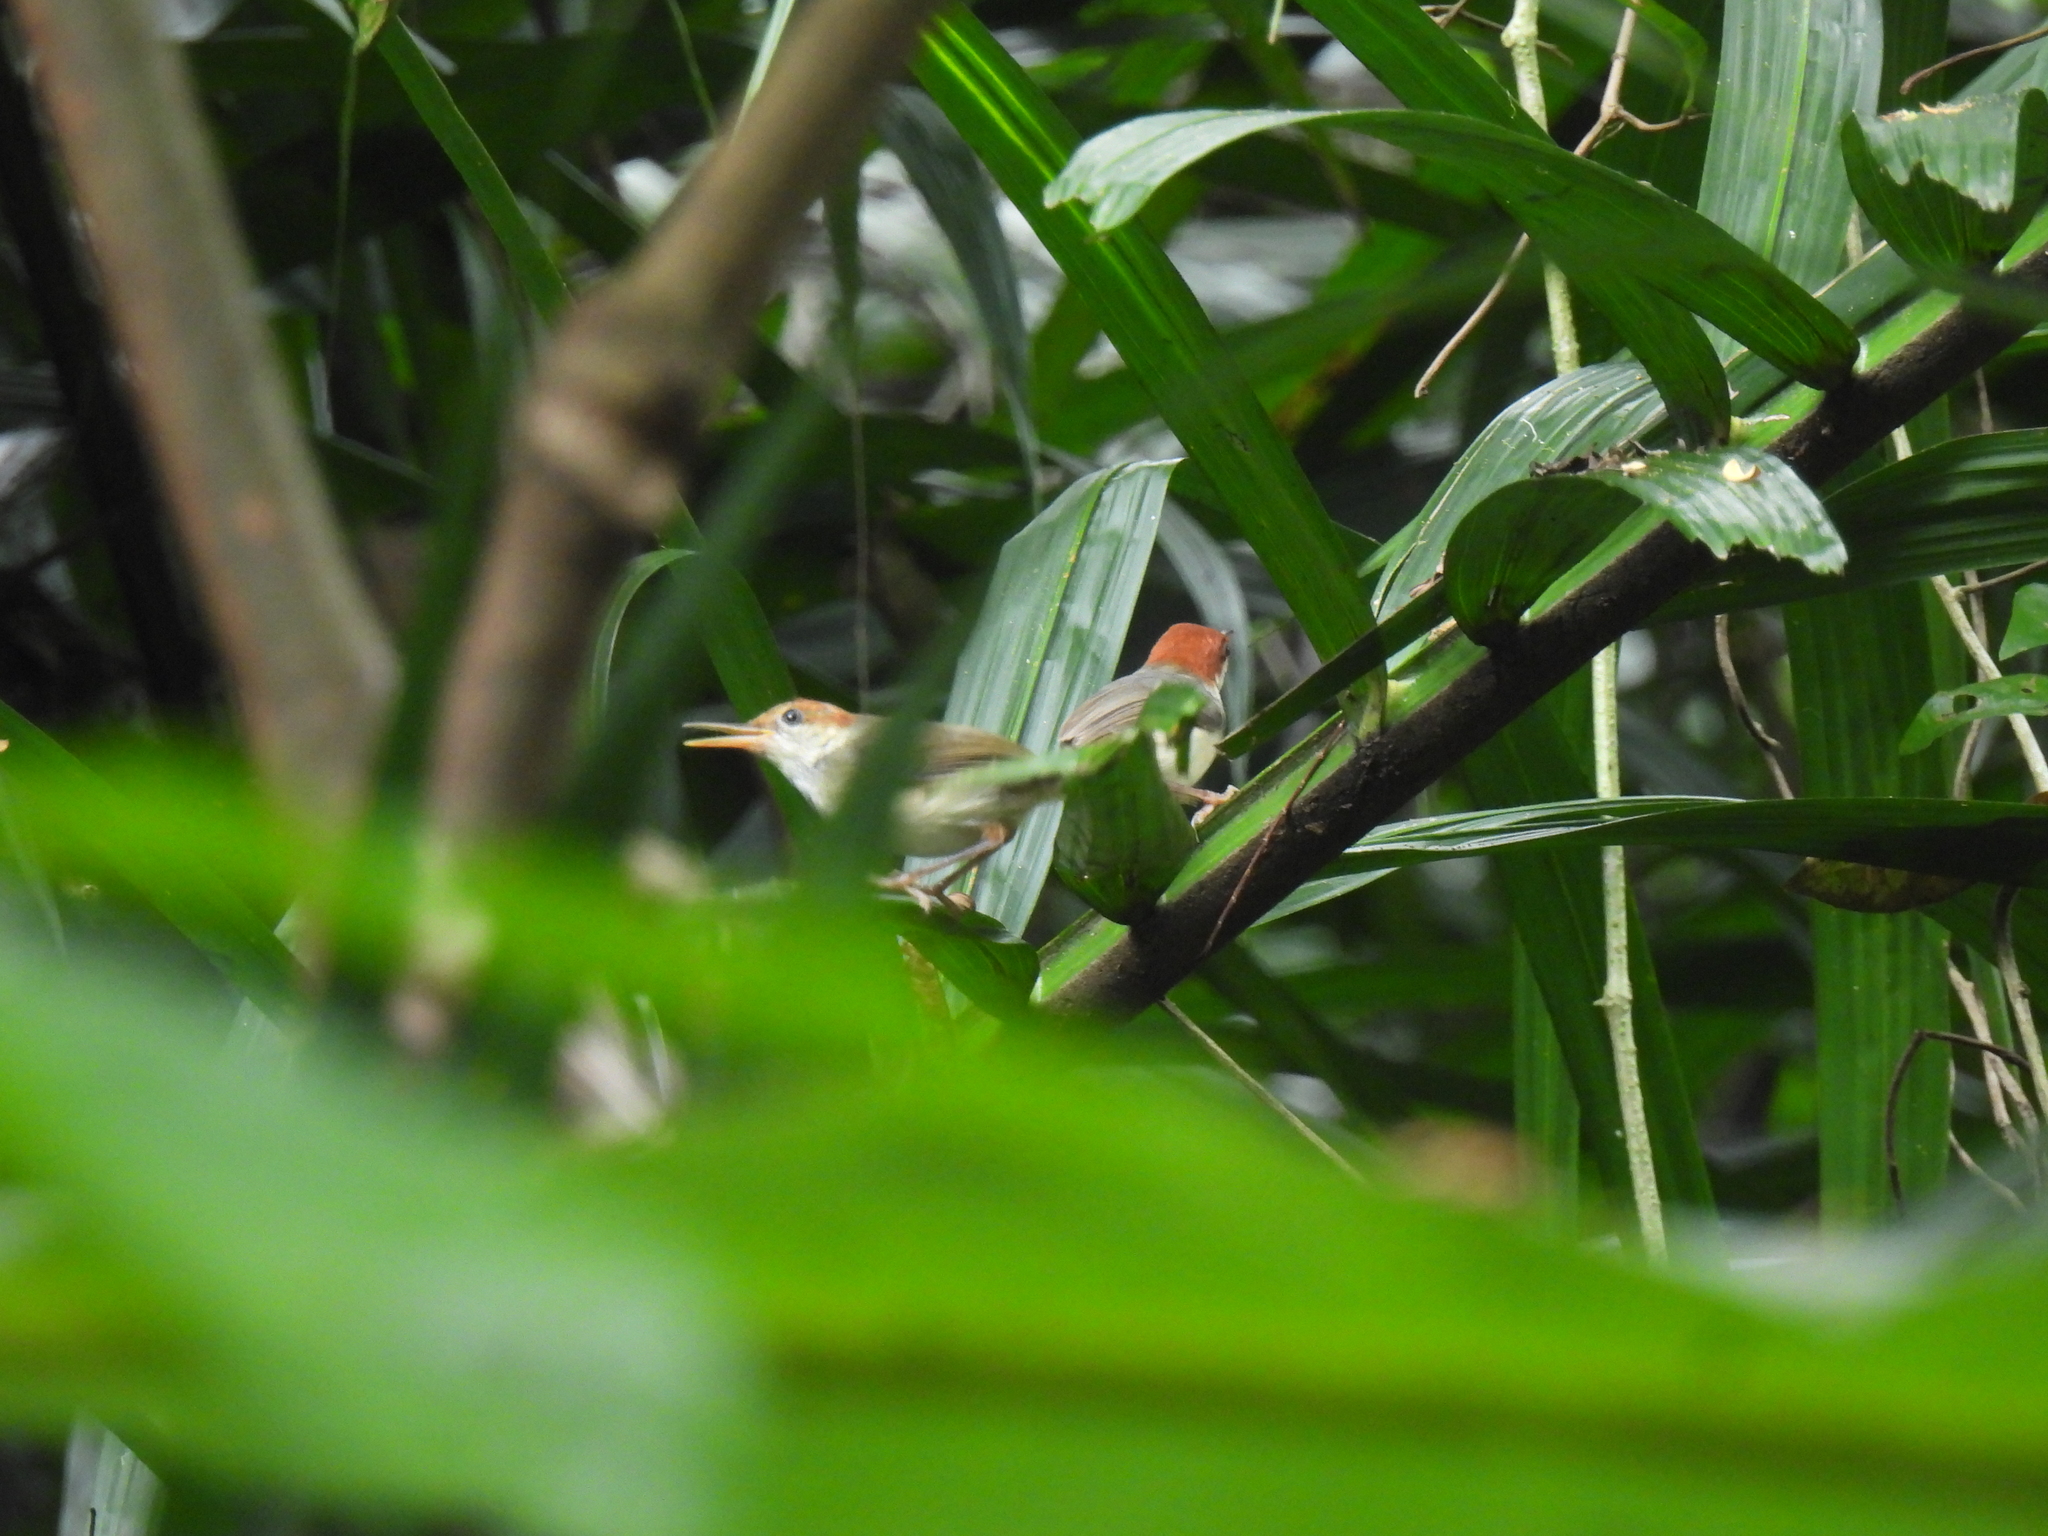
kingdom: Animalia
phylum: Chordata
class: Aves
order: Passeriformes
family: Cisticolidae
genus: Orthotomus
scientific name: Orthotomus sericeus
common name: Rufous-tailed tailorbird
